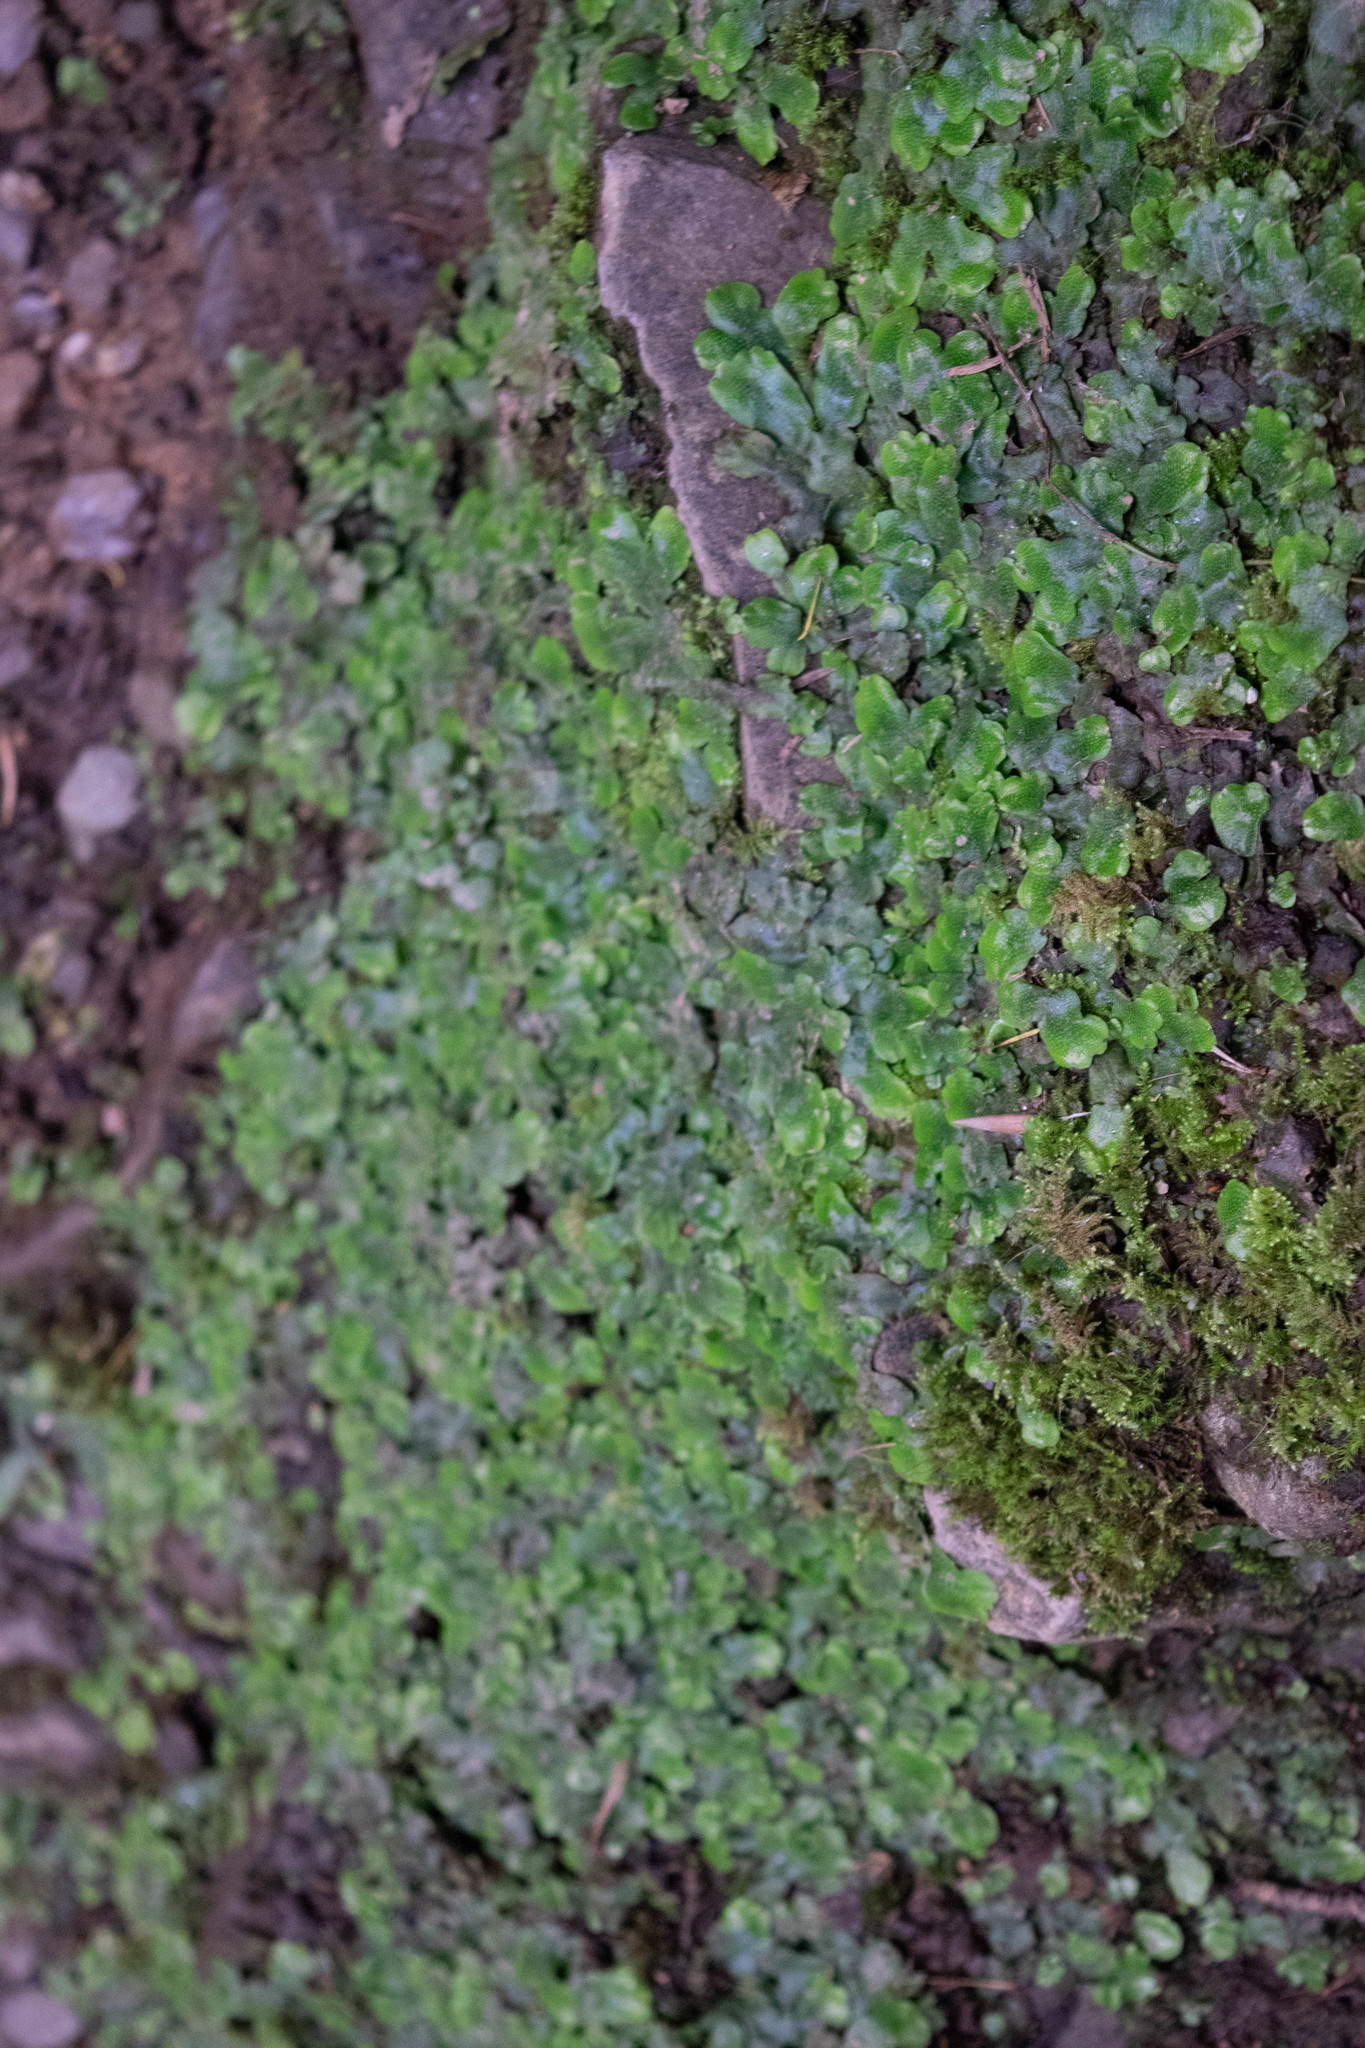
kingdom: Plantae
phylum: Marchantiophyta
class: Marchantiopsida
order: Marchantiales
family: Conocephalaceae
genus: Conocephalum
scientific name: Conocephalum conicum
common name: Great scented liverwort
